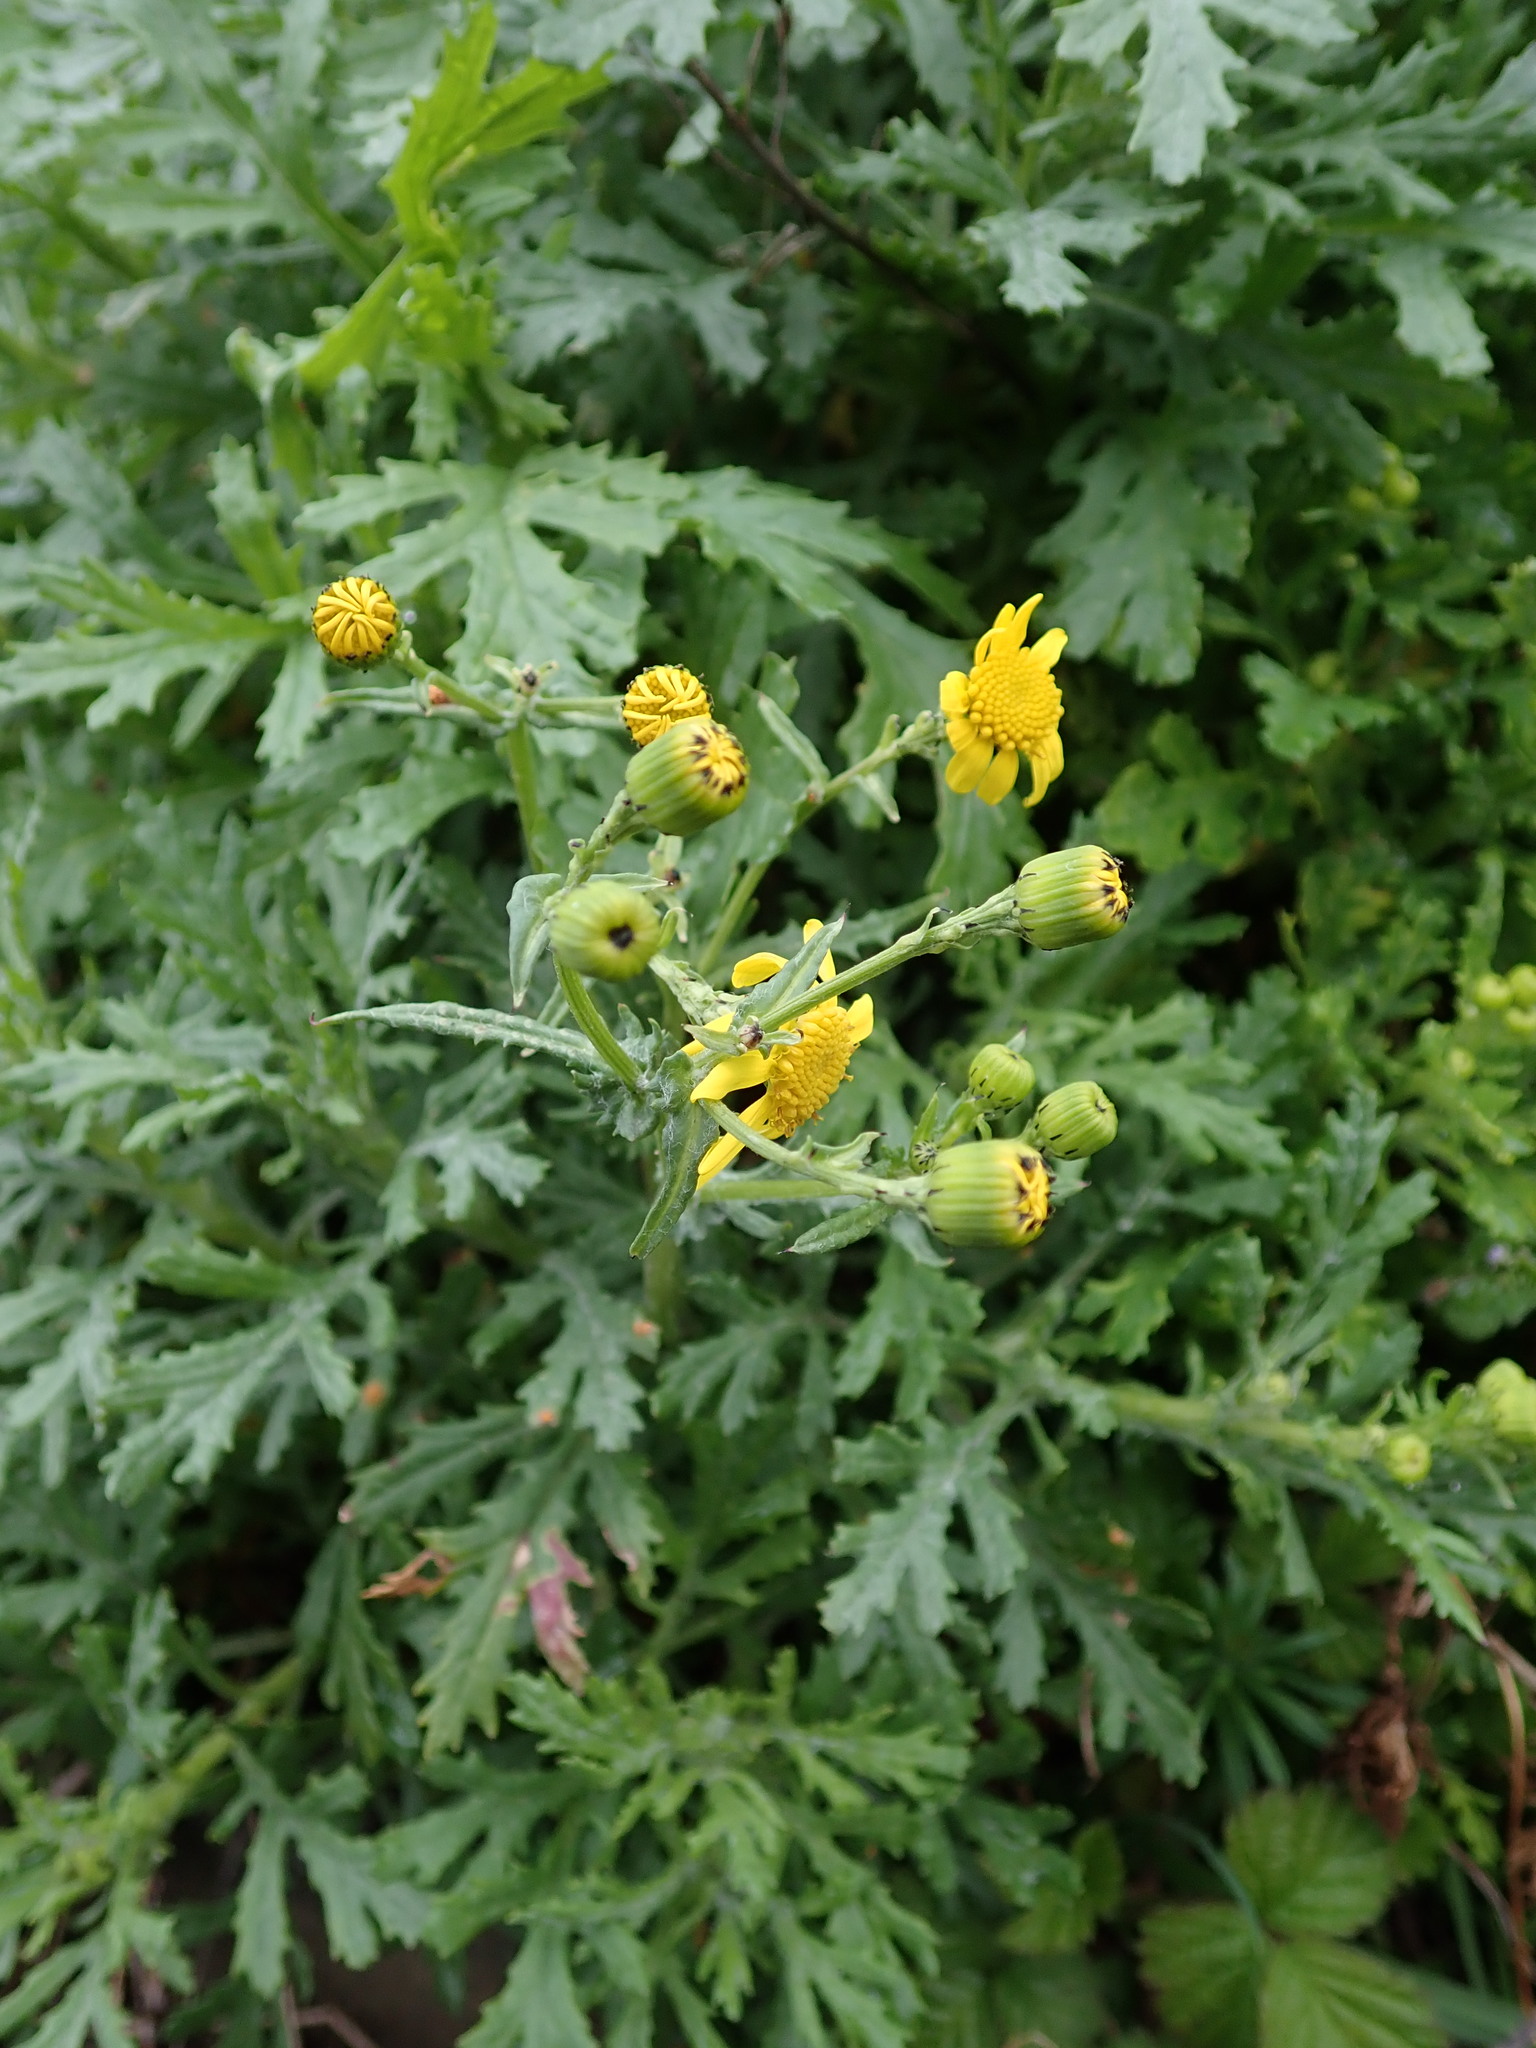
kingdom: Plantae
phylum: Tracheophyta
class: Magnoliopsida
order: Asterales
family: Asteraceae
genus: Senecio
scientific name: Senecio squalidus
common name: Oxford ragwort
